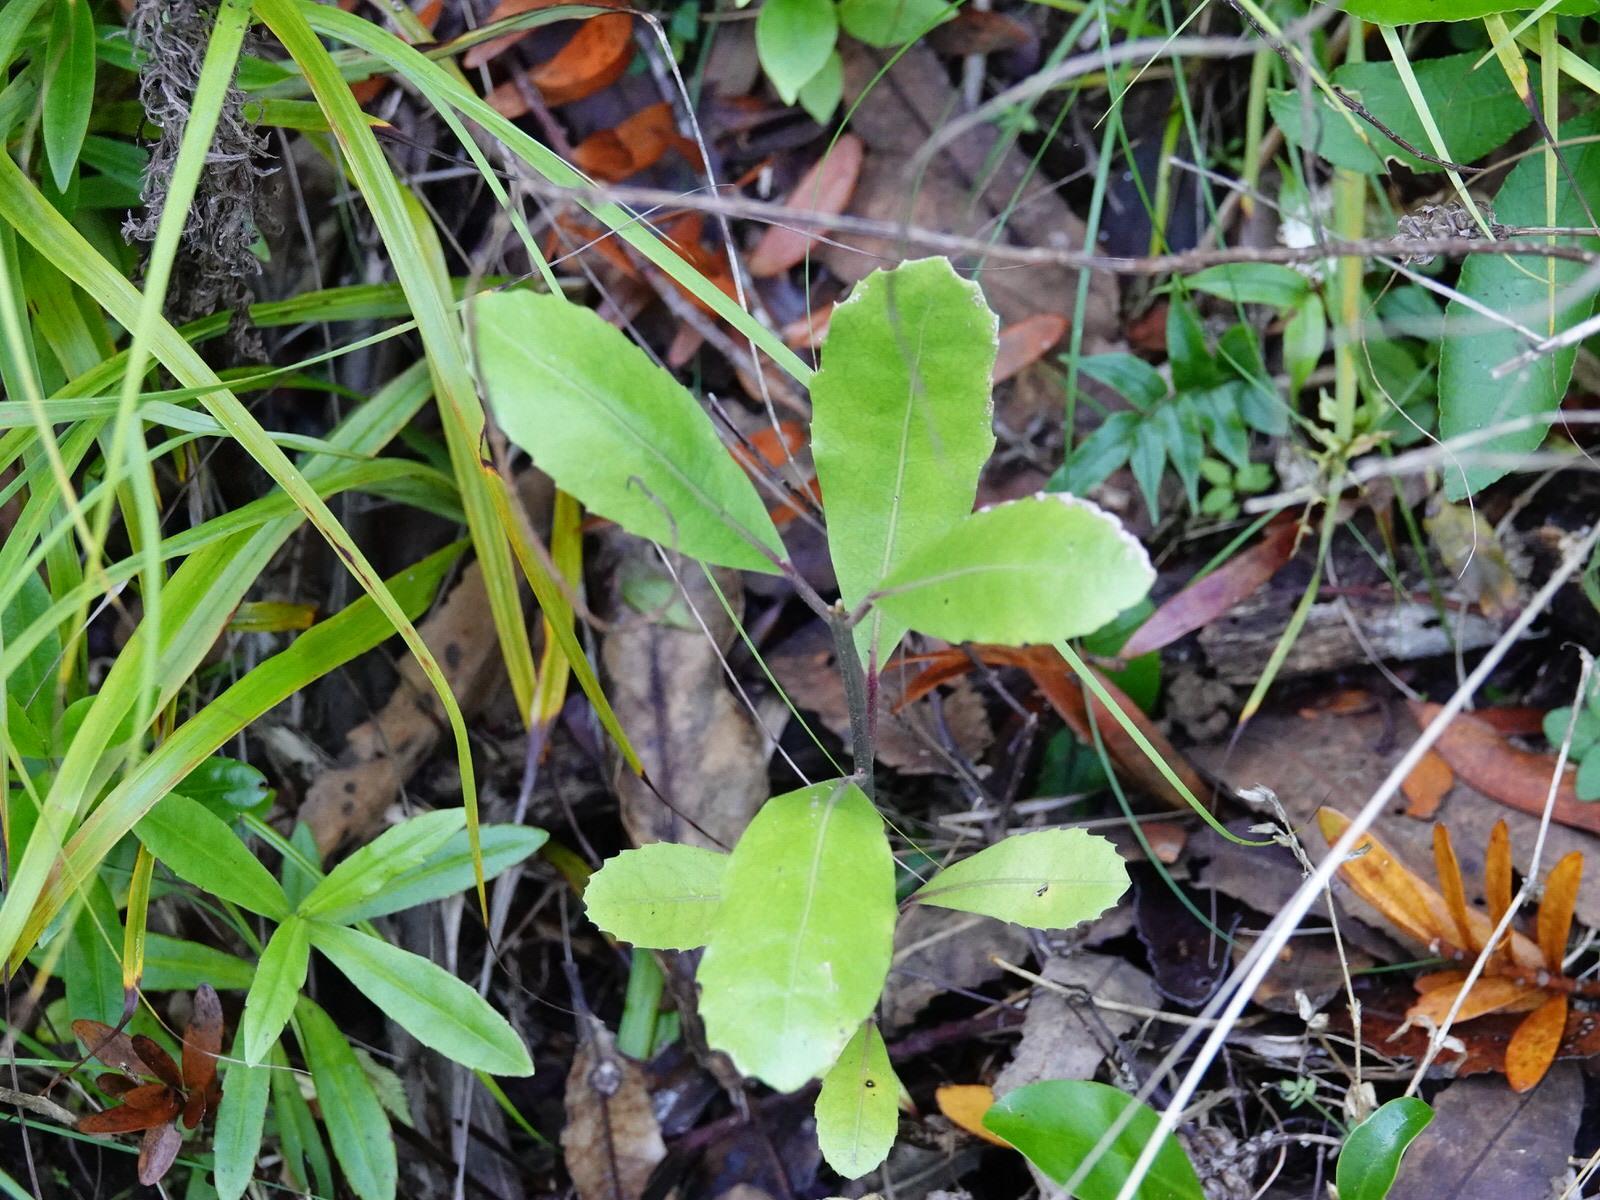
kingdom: Plantae
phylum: Tracheophyta
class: Magnoliopsida
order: Laurales
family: Monimiaceae
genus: Hedycarya
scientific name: Hedycarya arborea
